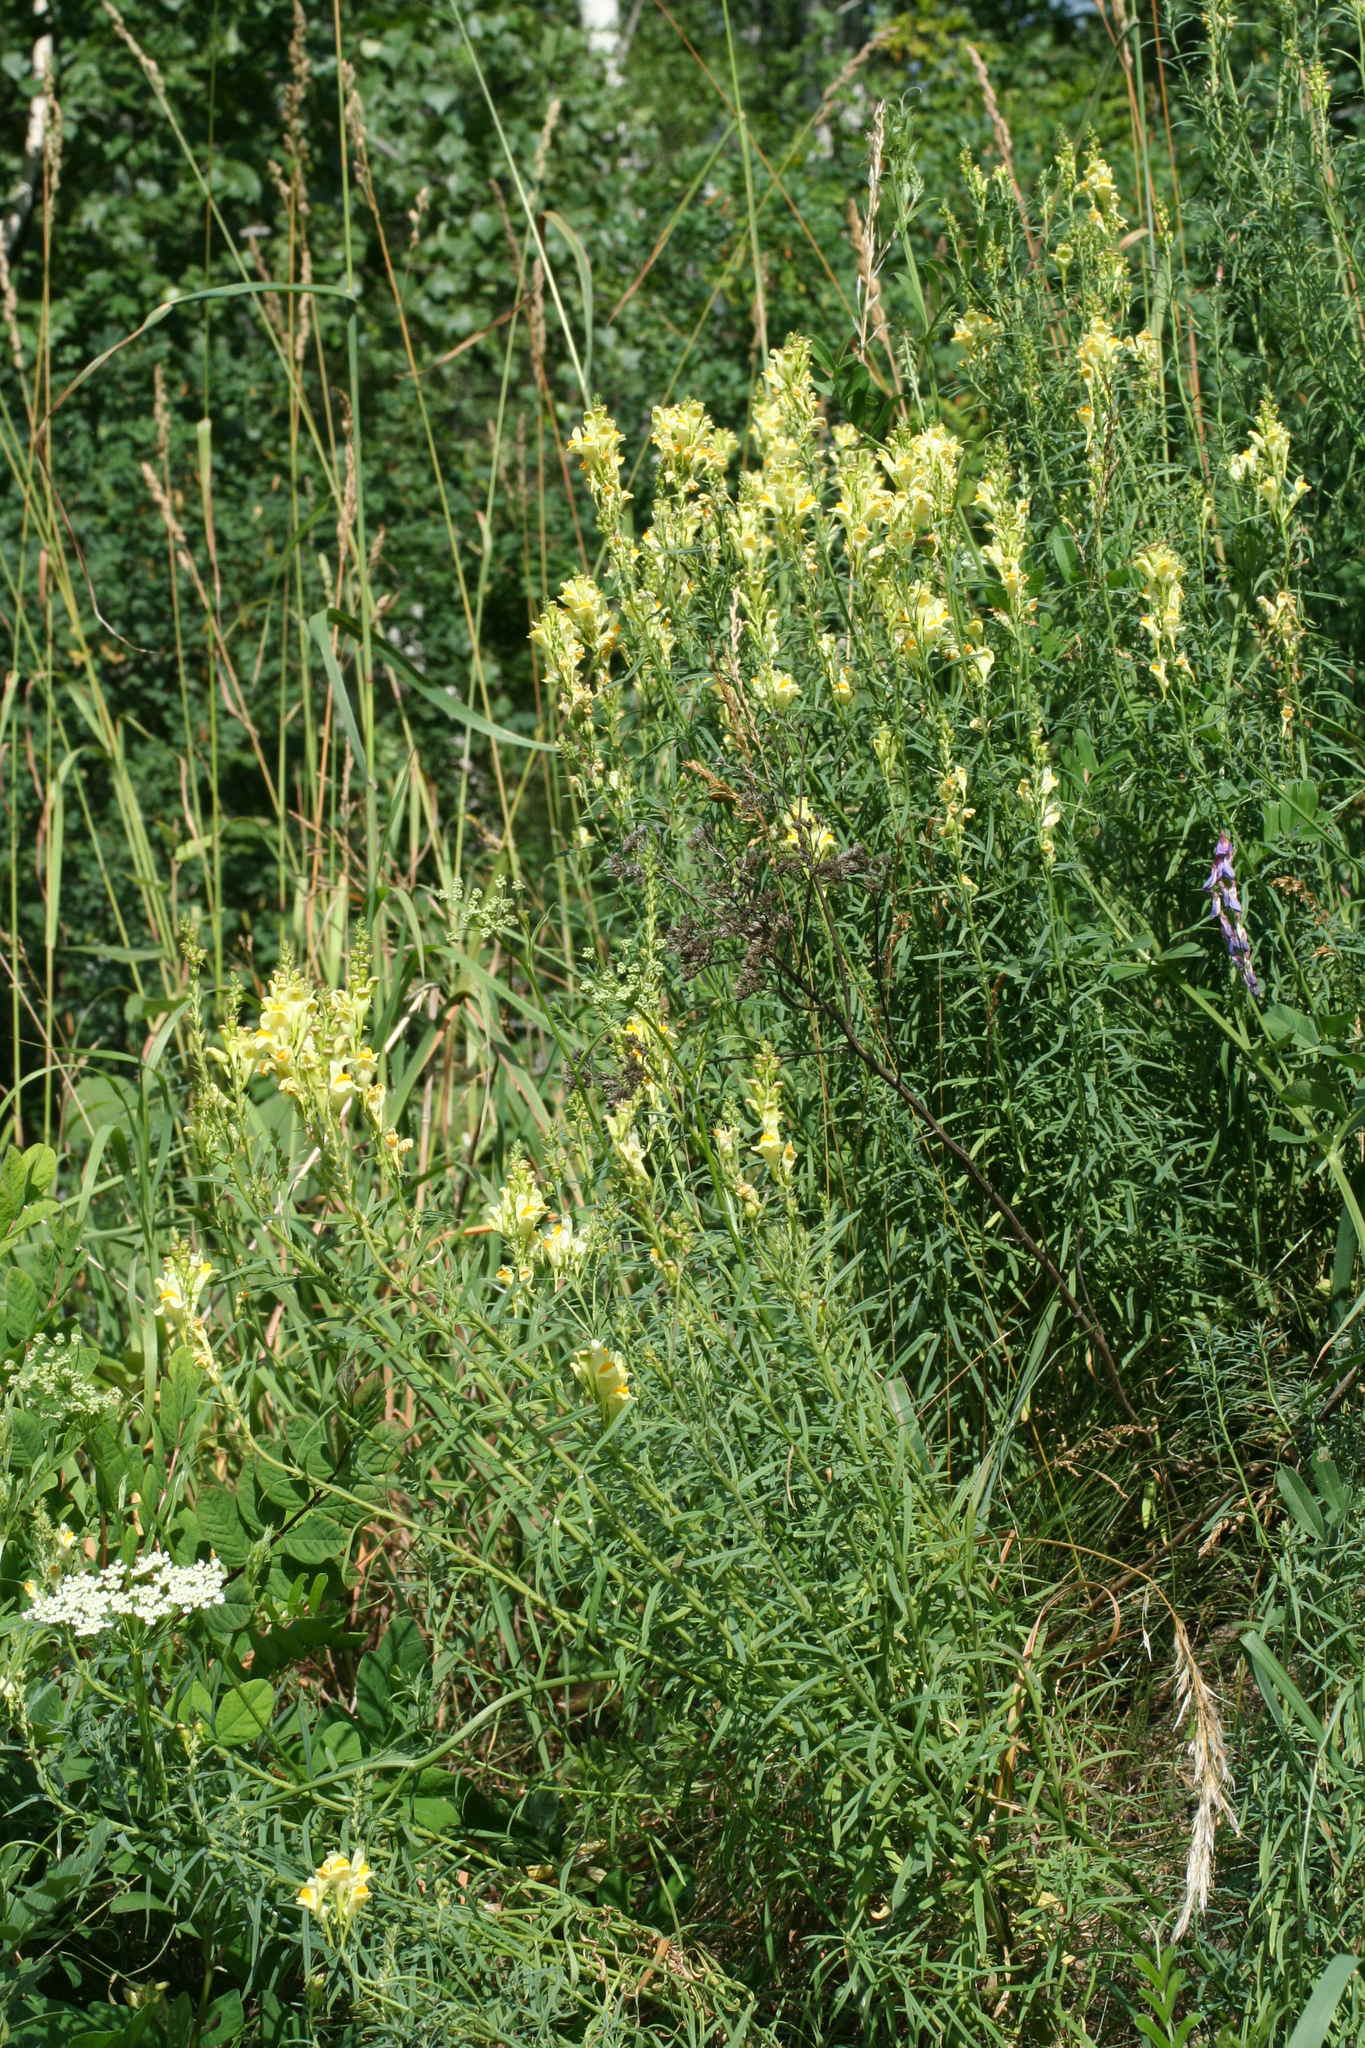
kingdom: Plantae
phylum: Tracheophyta
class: Magnoliopsida
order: Lamiales
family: Plantaginaceae
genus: Linaria
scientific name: Linaria vulgaris
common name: Butter and eggs
